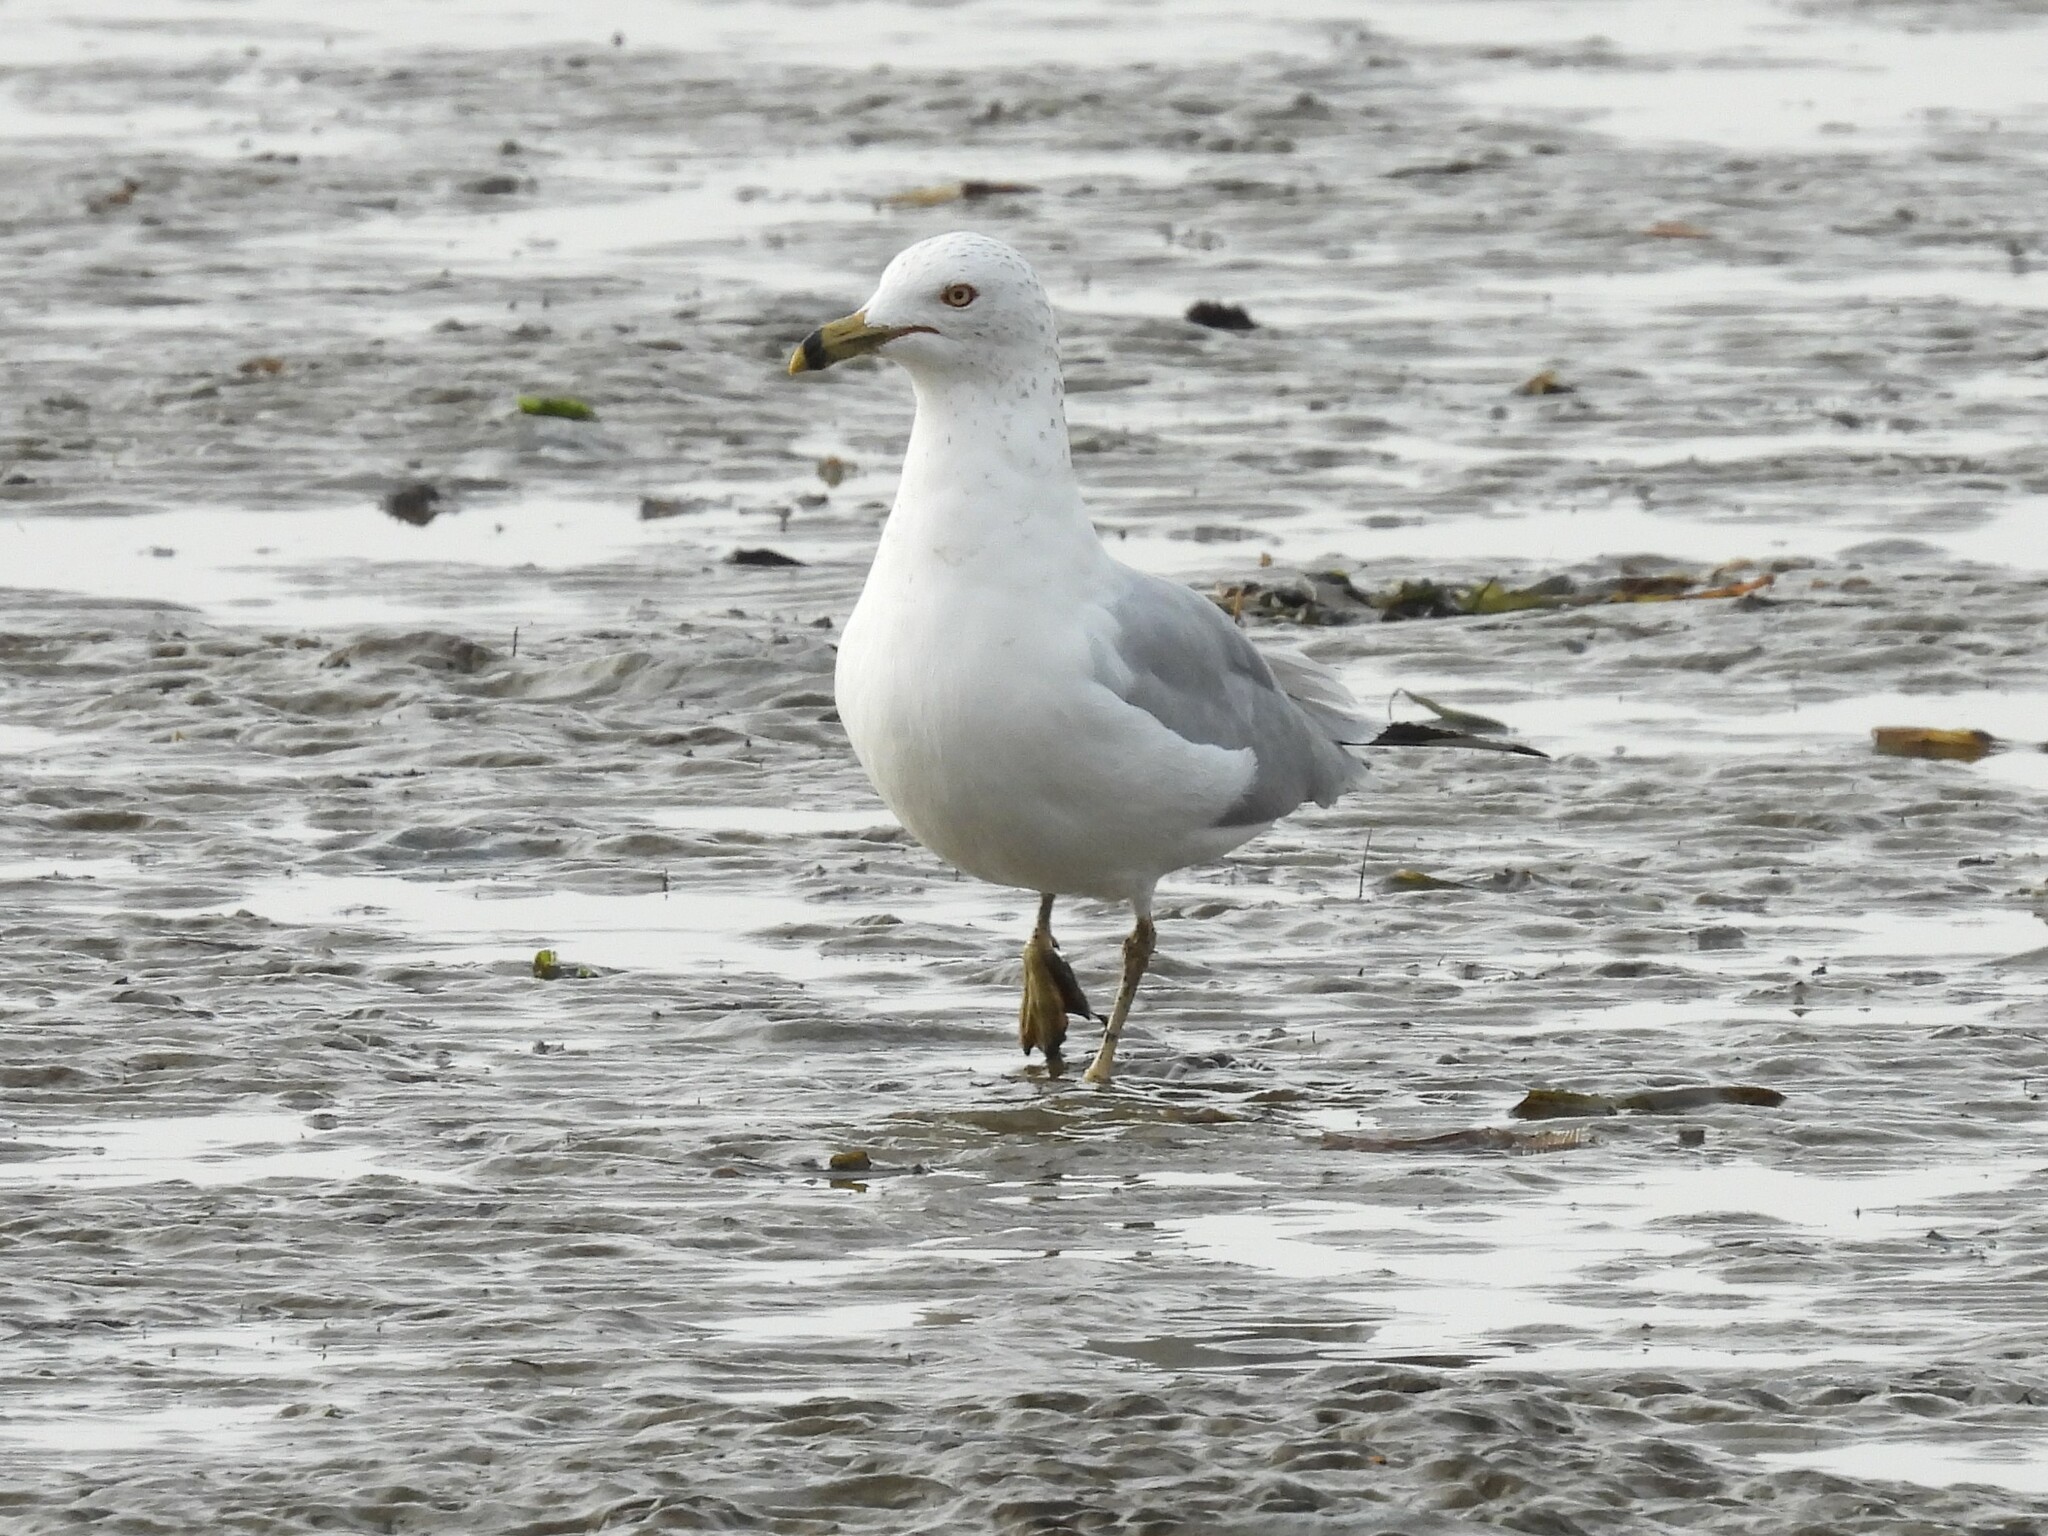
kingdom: Animalia
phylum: Chordata
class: Aves
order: Charadriiformes
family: Laridae
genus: Larus
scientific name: Larus delawarensis
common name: Ring-billed gull
